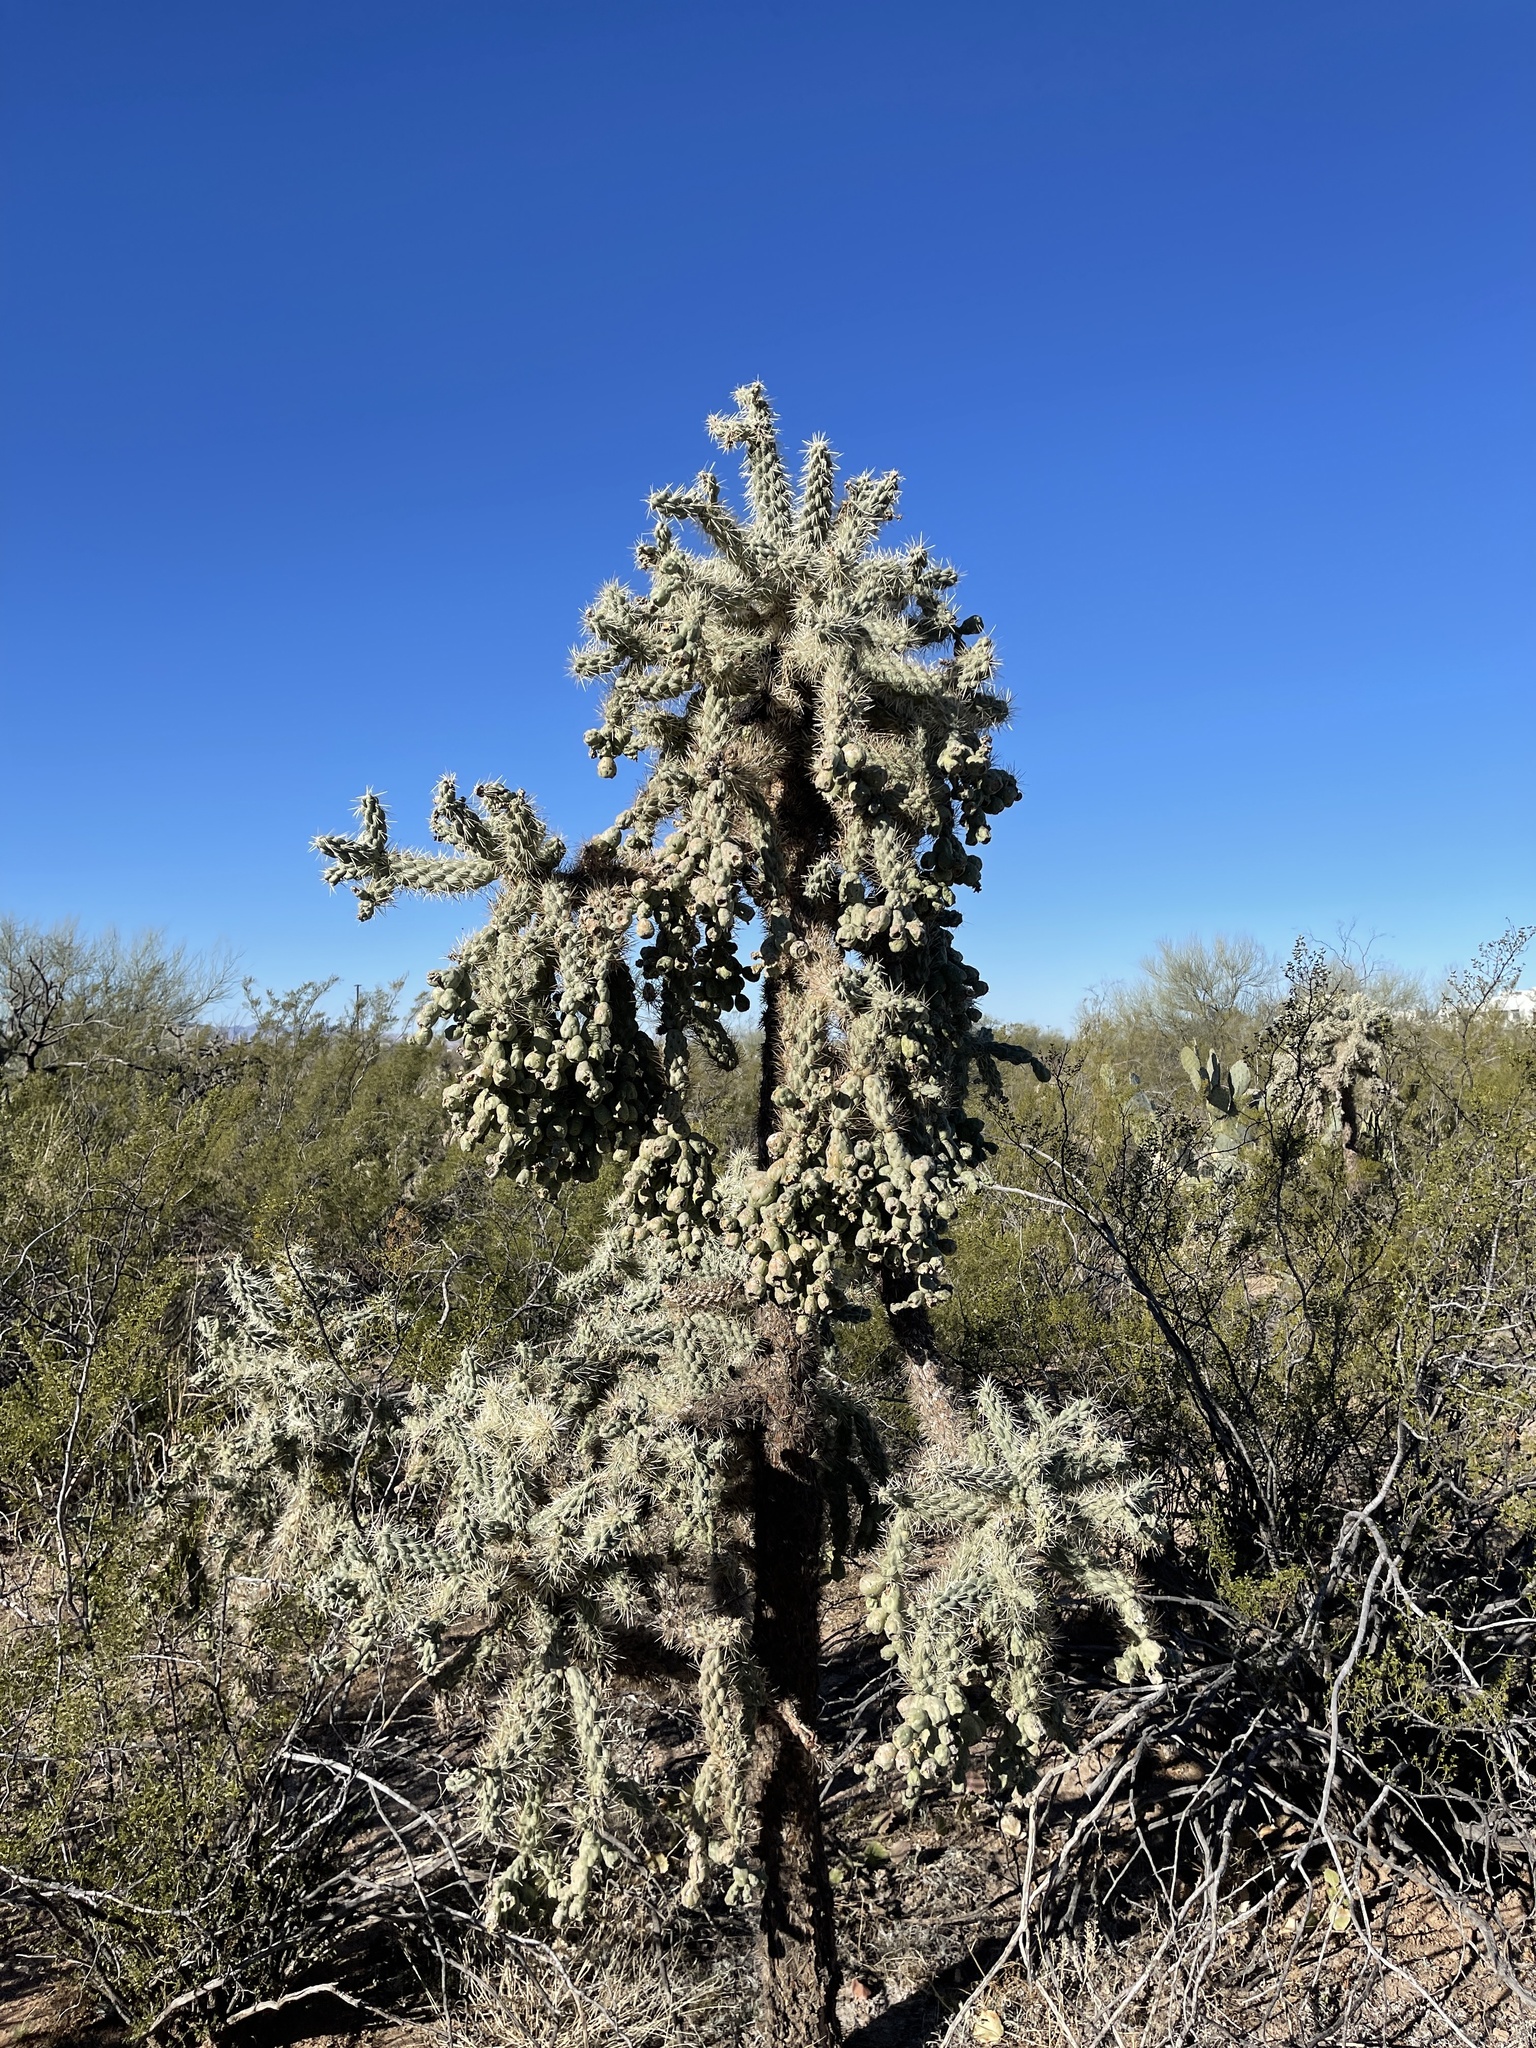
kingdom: Plantae
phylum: Tracheophyta
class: Magnoliopsida
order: Caryophyllales
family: Cactaceae
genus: Cylindropuntia
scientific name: Cylindropuntia fulgida
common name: Jumping cholla
